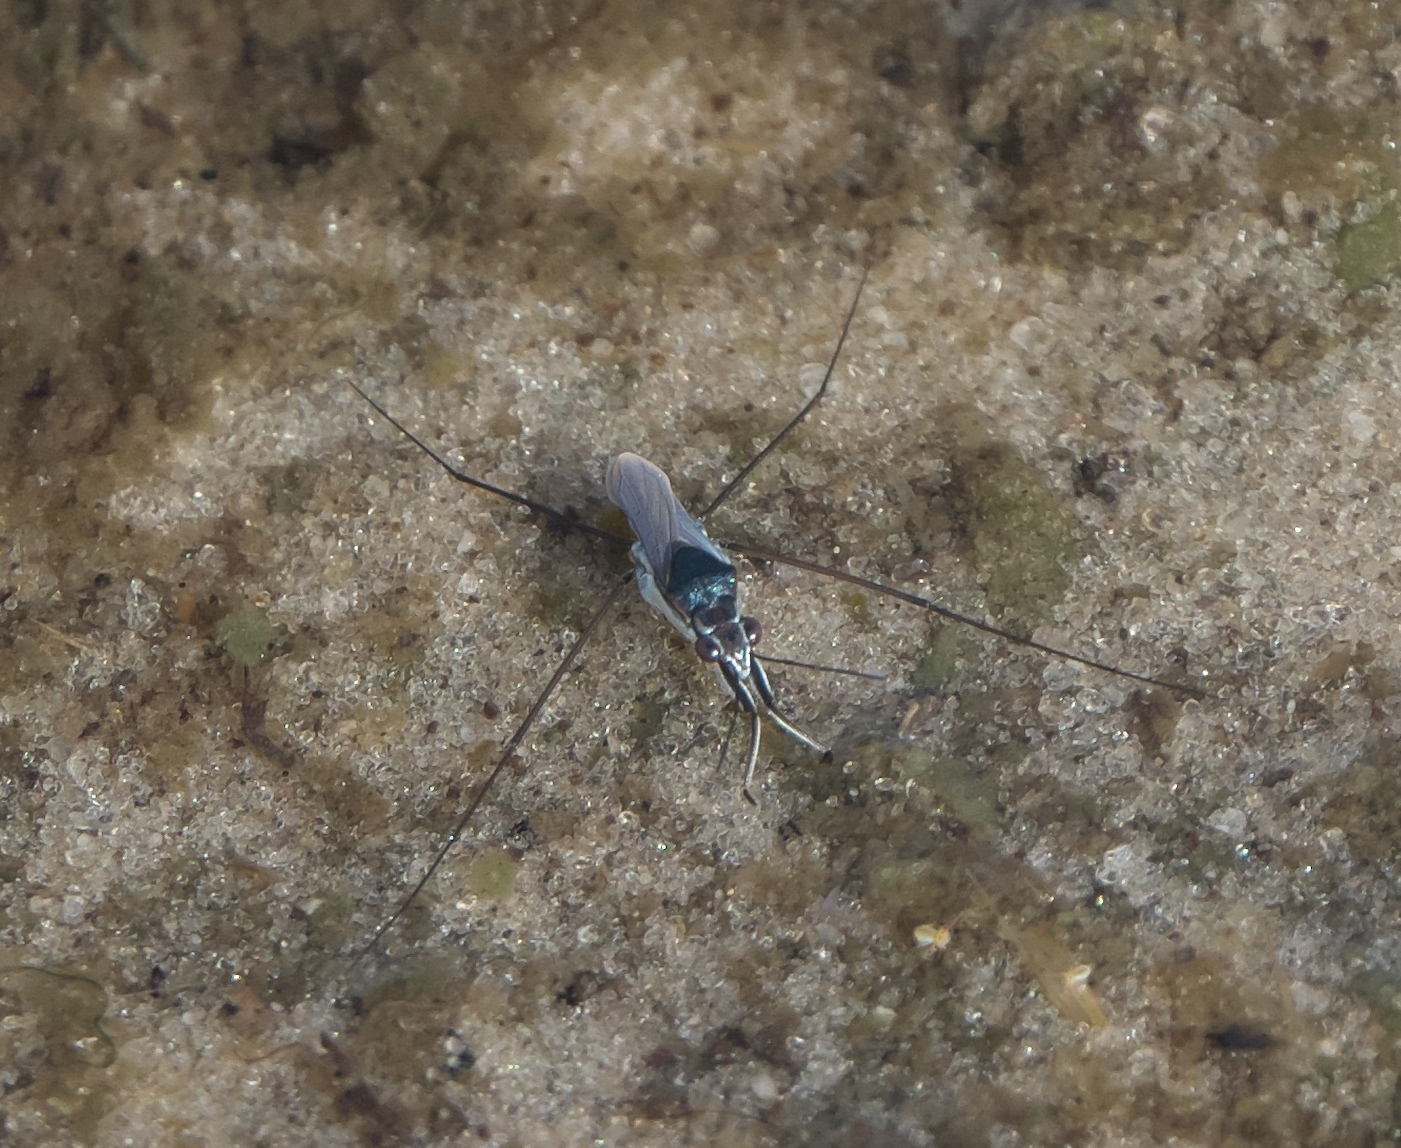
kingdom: Animalia
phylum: Arthropoda
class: Insecta
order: Hemiptera
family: Gerridae
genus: Neogerris
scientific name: Neogerris hesione
